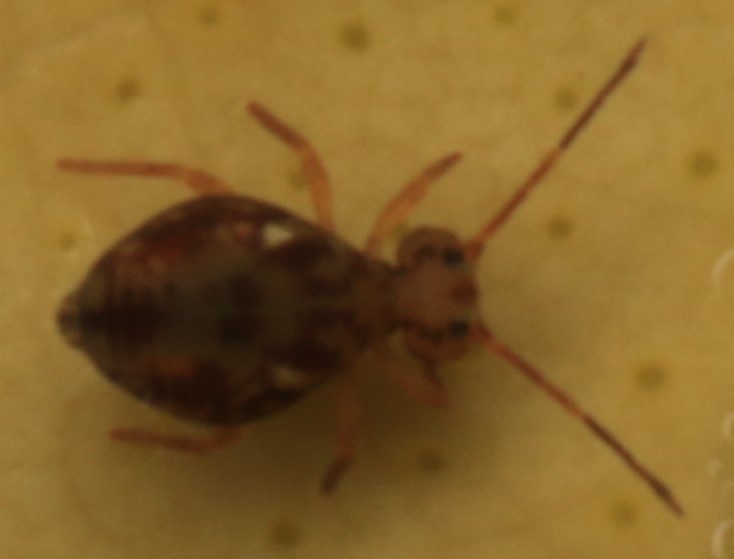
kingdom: Animalia
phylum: Arthropoda
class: Collembola
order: Symphypleona
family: Dicyrtomidae
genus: Dicyrtomina
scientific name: Dicyrtomina saundersi
